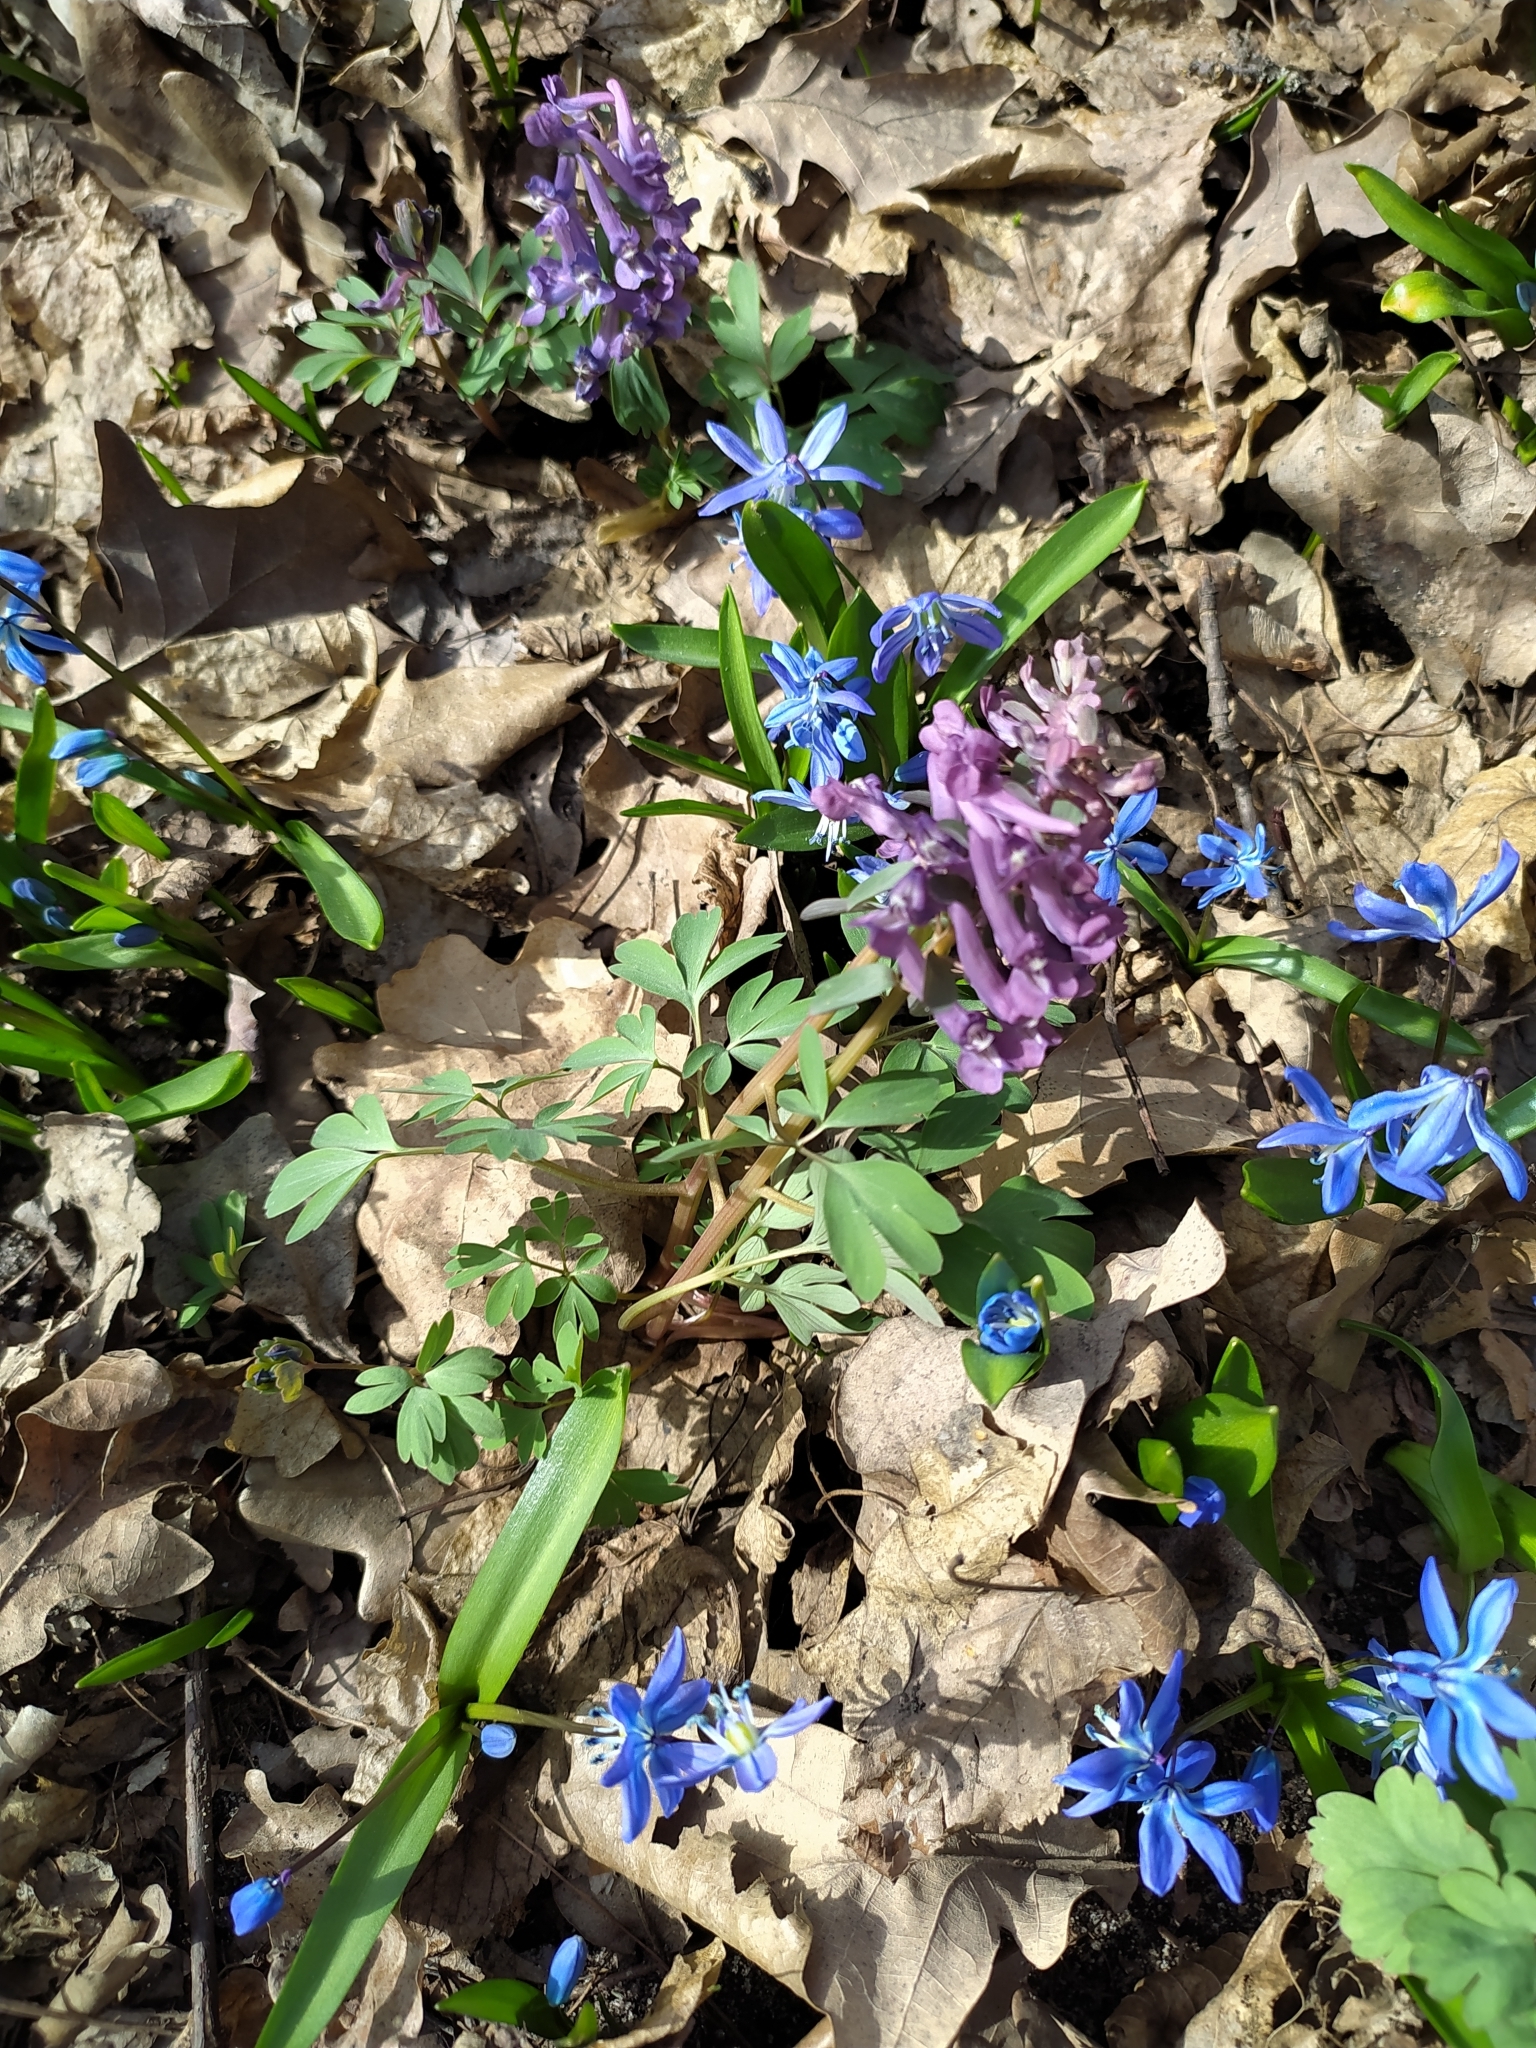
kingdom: Plantae
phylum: Tracheophyta
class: Magnoliopsida
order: Ranunculales
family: Papaveraceae
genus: Corydalis
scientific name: Corydalis solida
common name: Bird-in-a-bush
